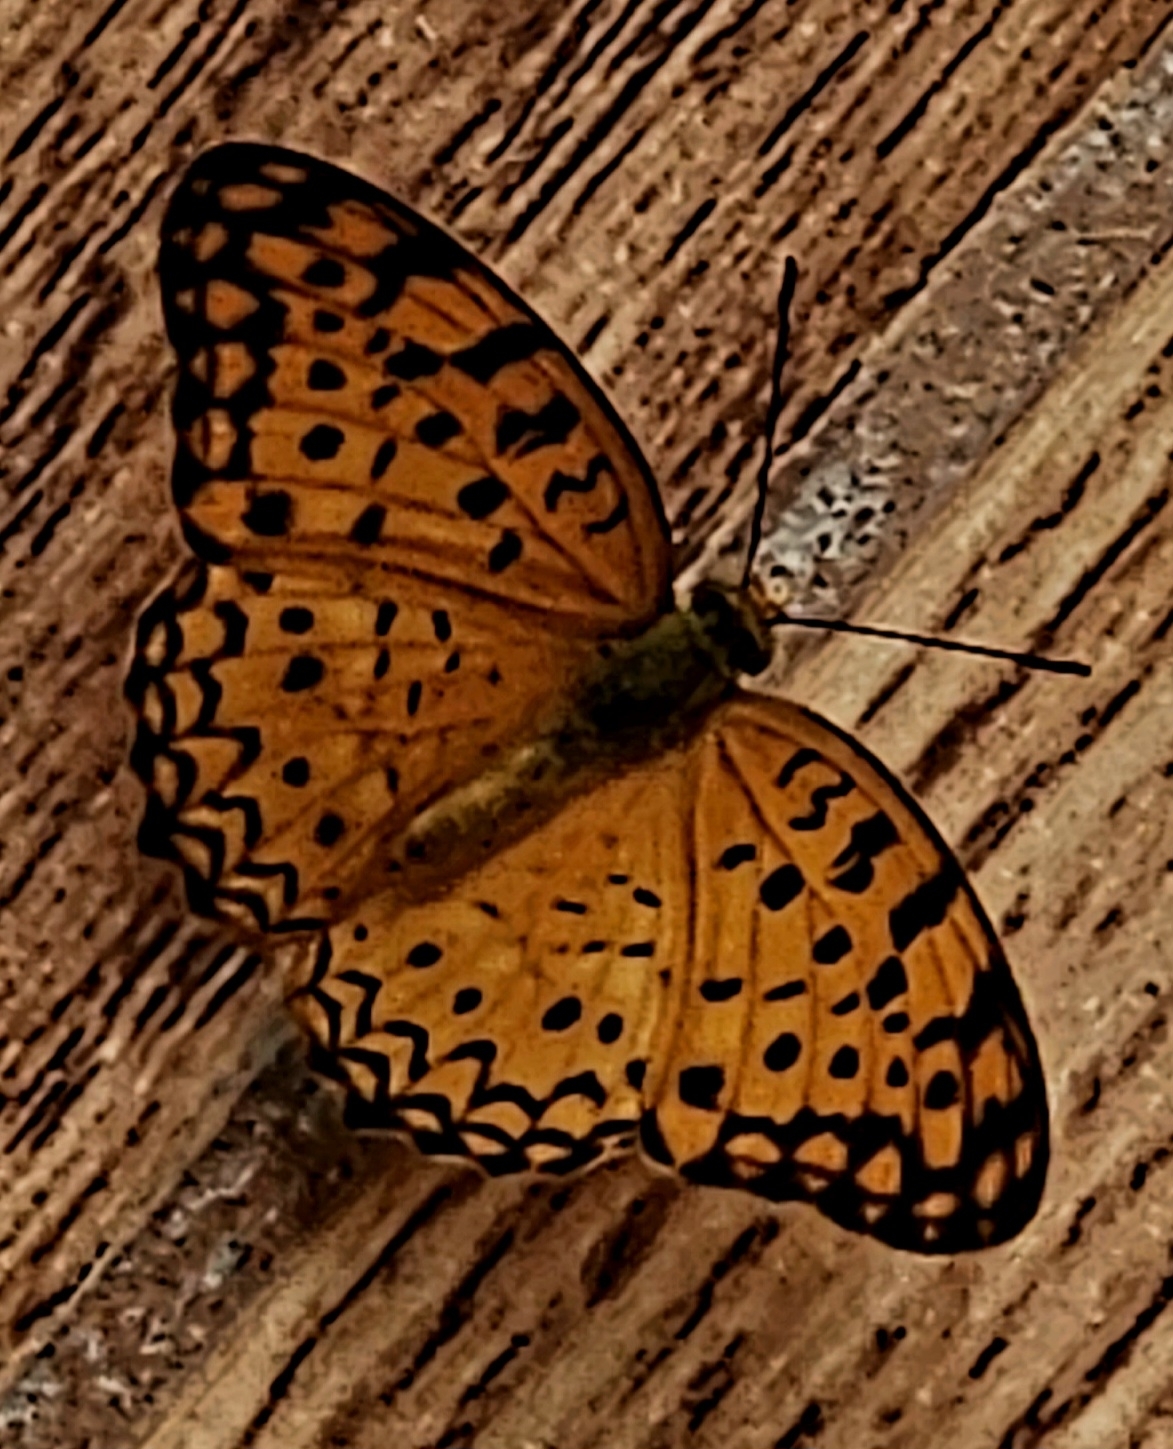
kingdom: Animalia
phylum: Arthropoda
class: Insecta
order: Lepidoptera
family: Nymphalidae
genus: Phalanta
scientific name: Phalanta phalantha
